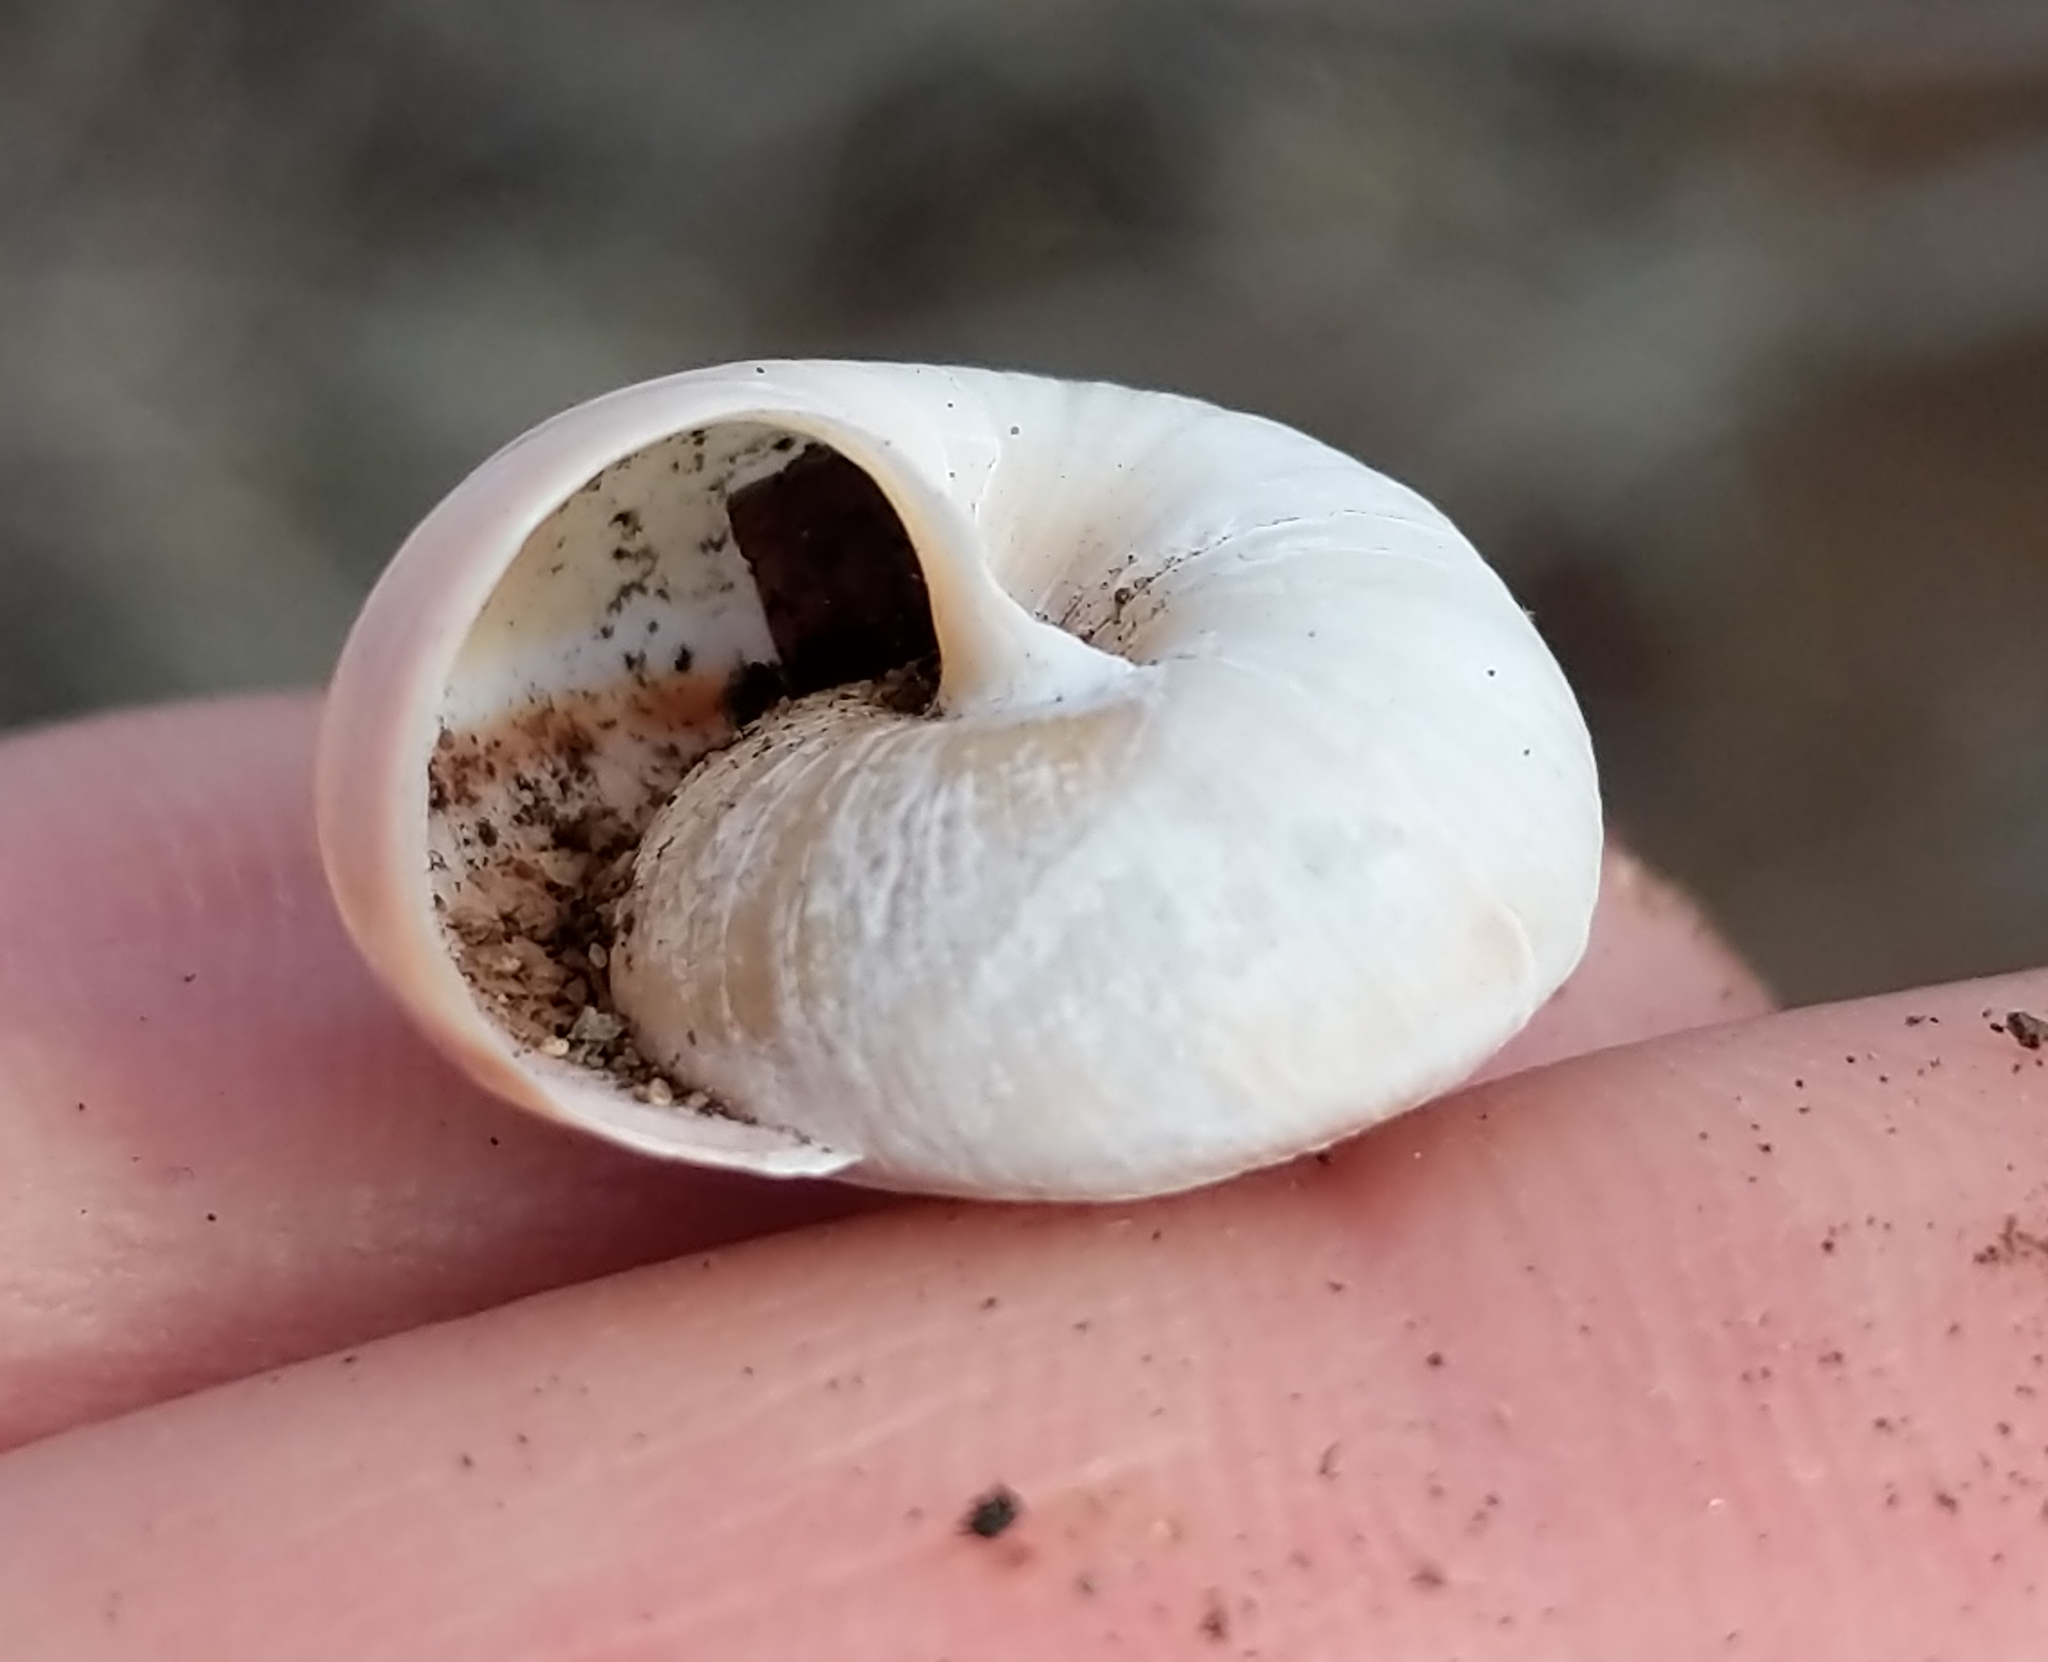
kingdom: Animalia
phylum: Mollusca
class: Gastropoda
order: Stylommatophora
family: Xanthonychidae
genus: Helminthoglypta
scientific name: Helminthoglypta umbilicata
